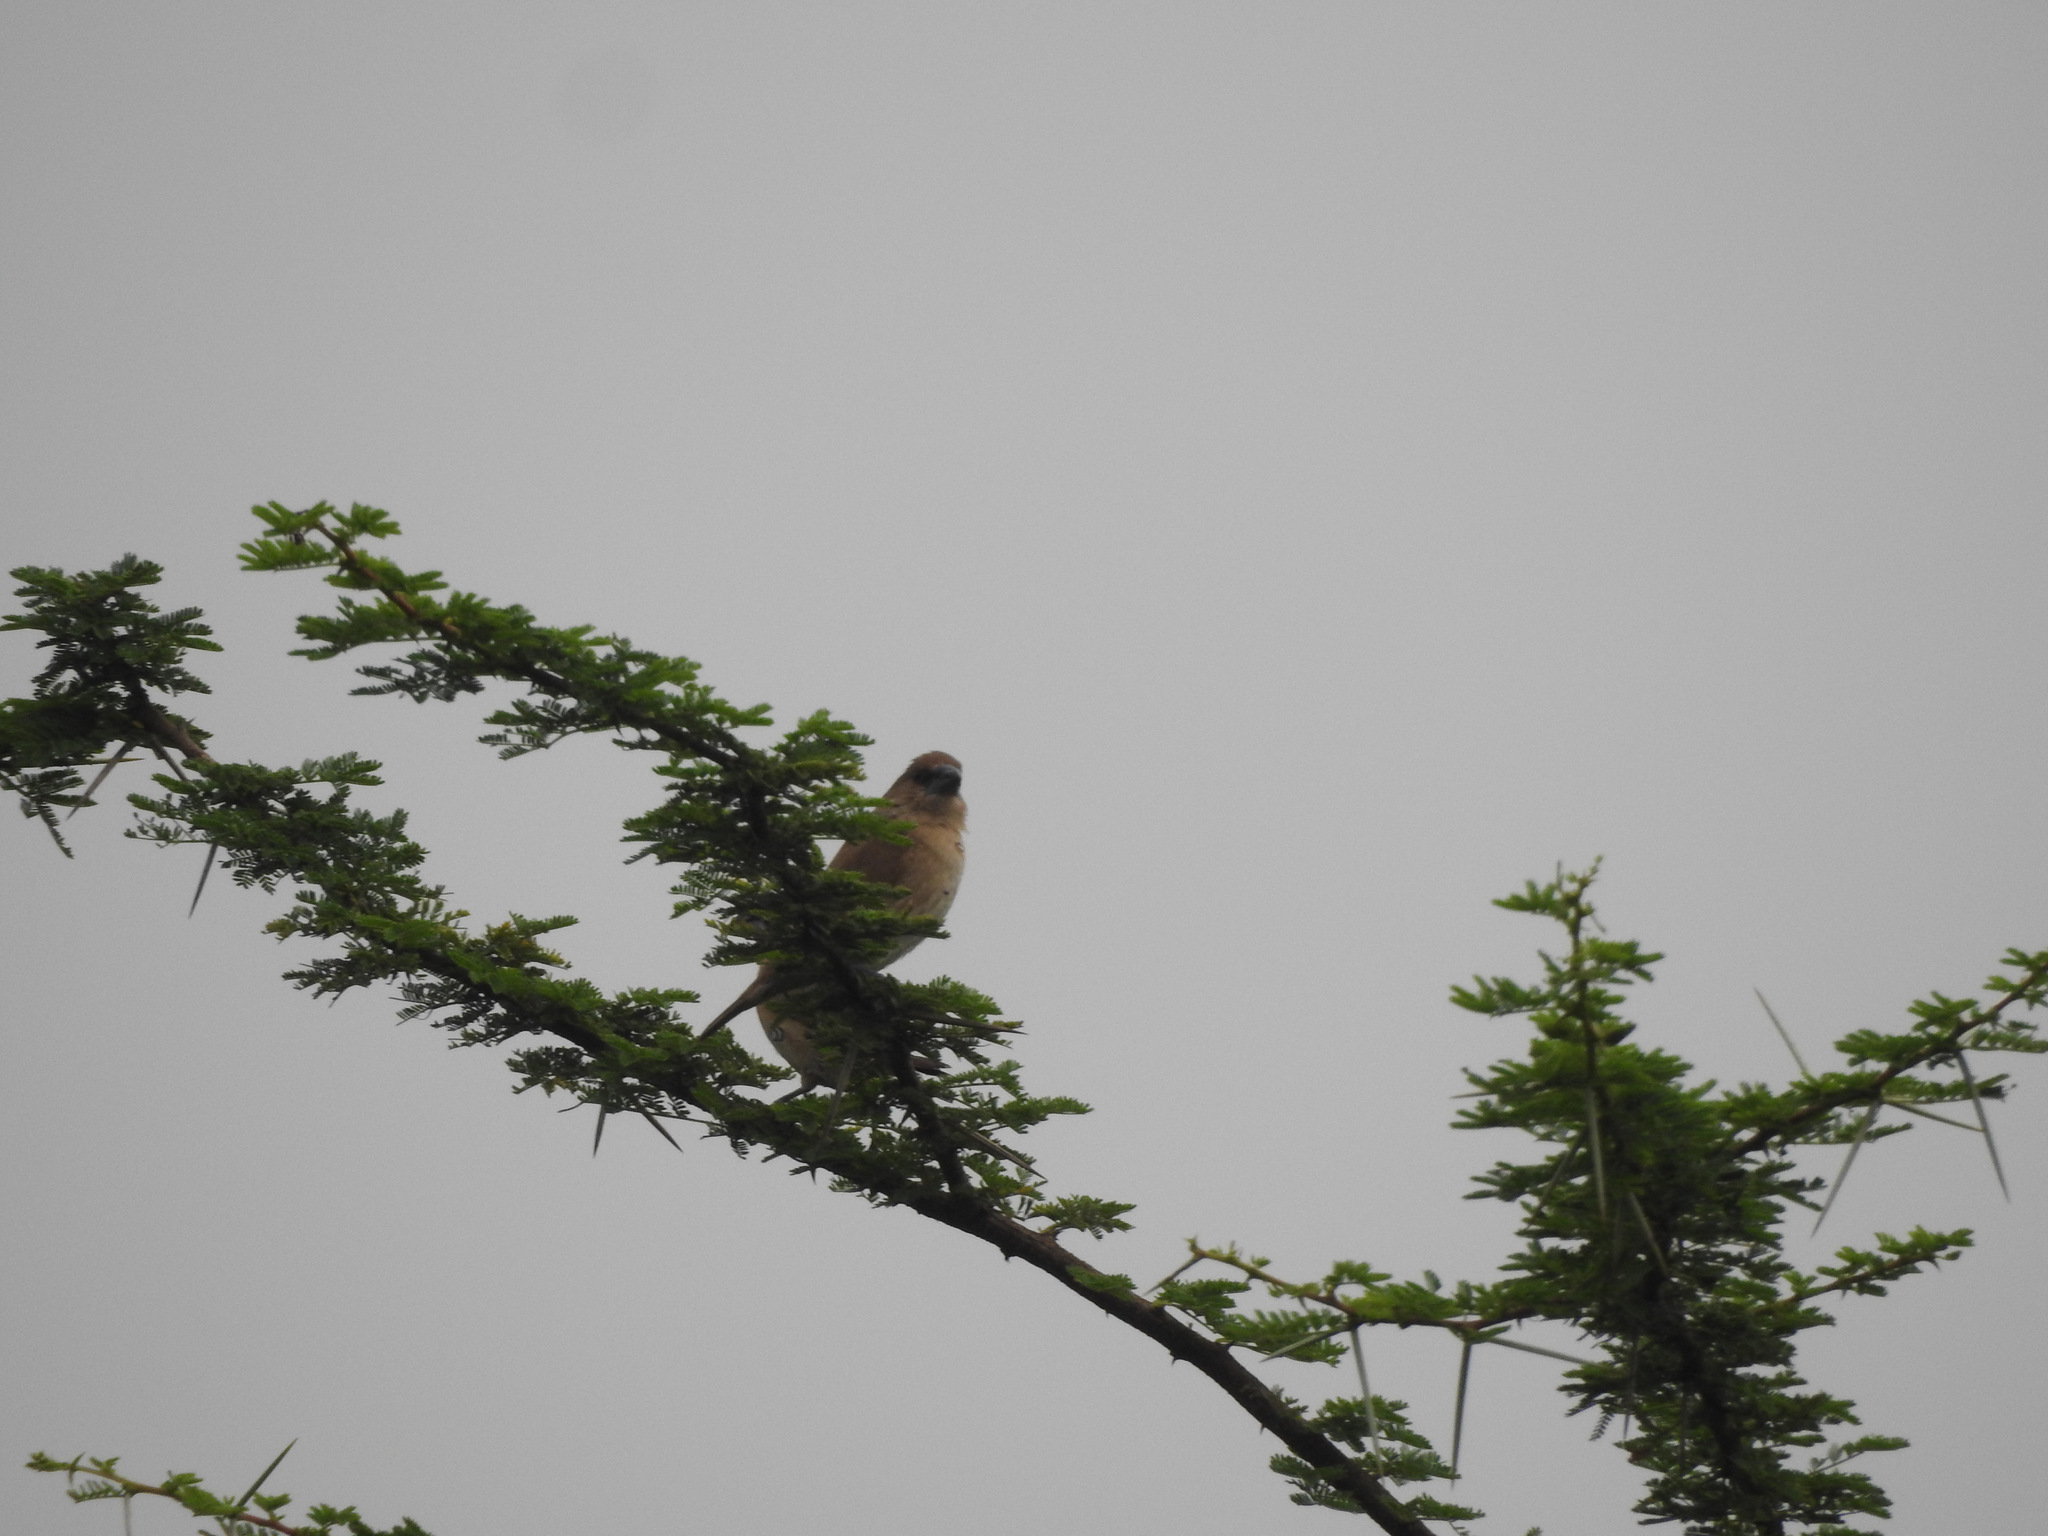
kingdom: Animalia
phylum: Chordata
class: Aves
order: Passeriformes
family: Estrildidae
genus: Lonchura
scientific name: Lonchura punctulata
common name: Scaly-breasted munia
